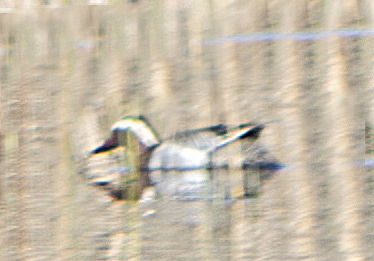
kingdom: Animalia
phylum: Chordata
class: Aves
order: Anseriformes
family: Anatidae
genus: Spatula
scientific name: Spatula querquedula
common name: Garganey
